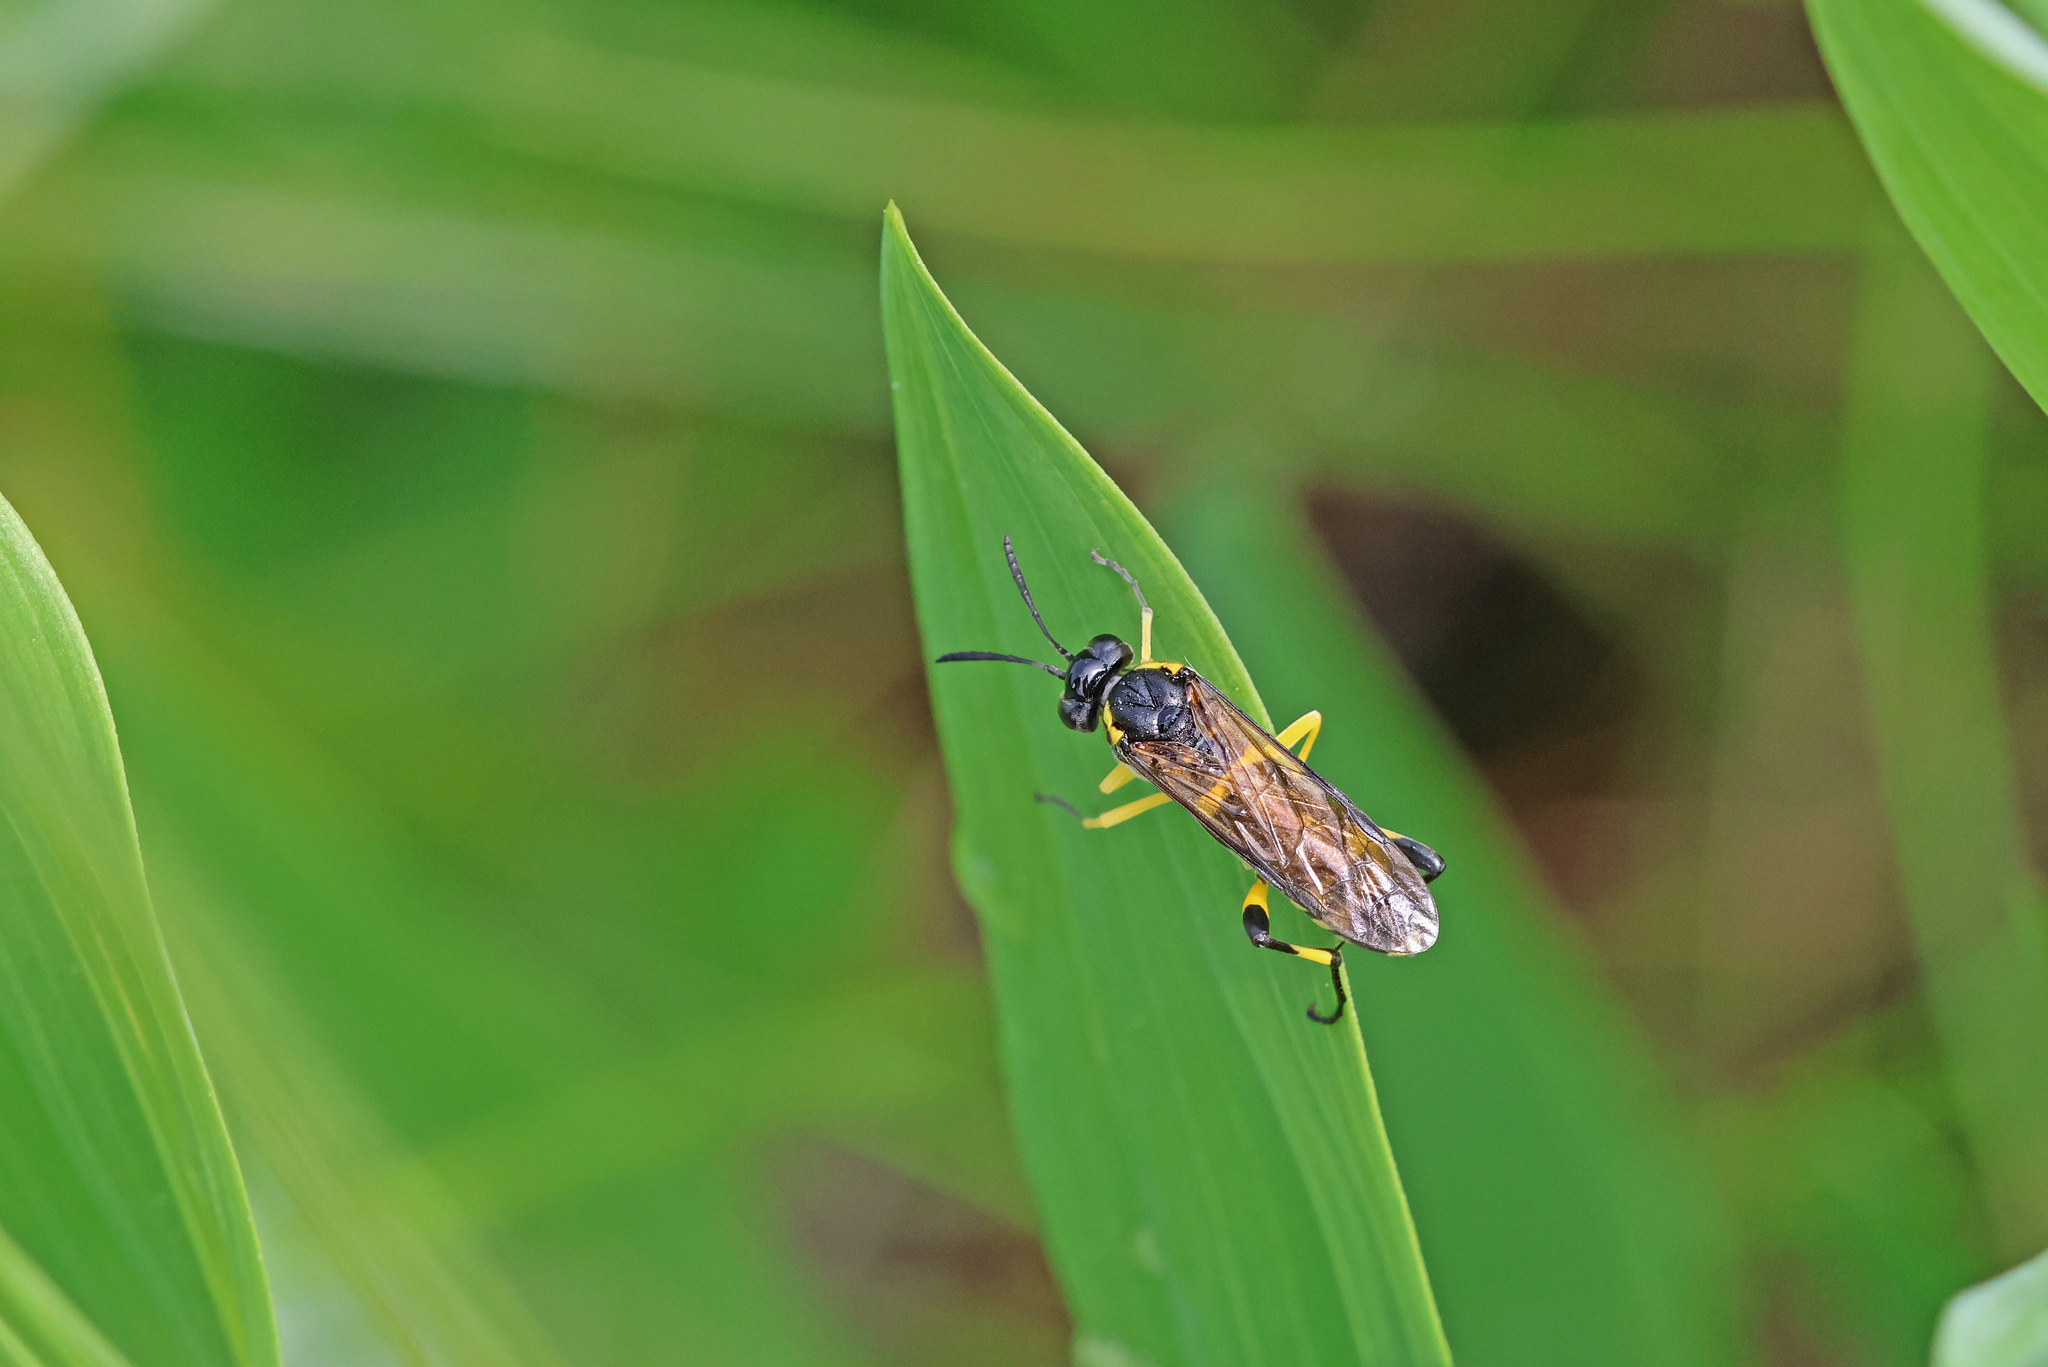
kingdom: Animalia
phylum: Arthropoda
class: Insecta
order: Hymenoptera
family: Tenthredinidae
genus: Macrophya
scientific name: Macrophya montana
